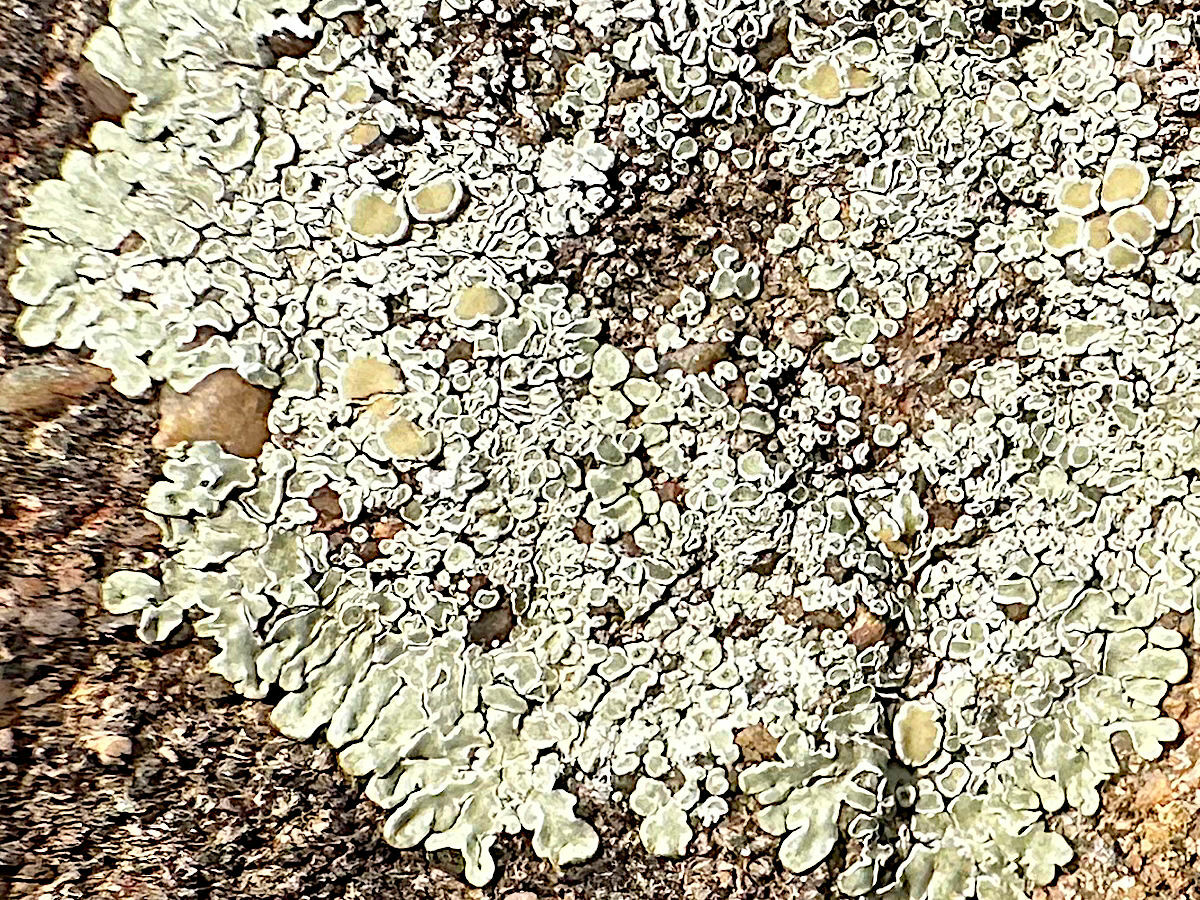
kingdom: Fungi
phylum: Ascomycota
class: Lecanoromycetes
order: Lecanorales
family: Lecanoraceae
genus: Protoparmeliopsis
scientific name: Protoparmeliopsis muralis
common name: Stonewall rim lichen
